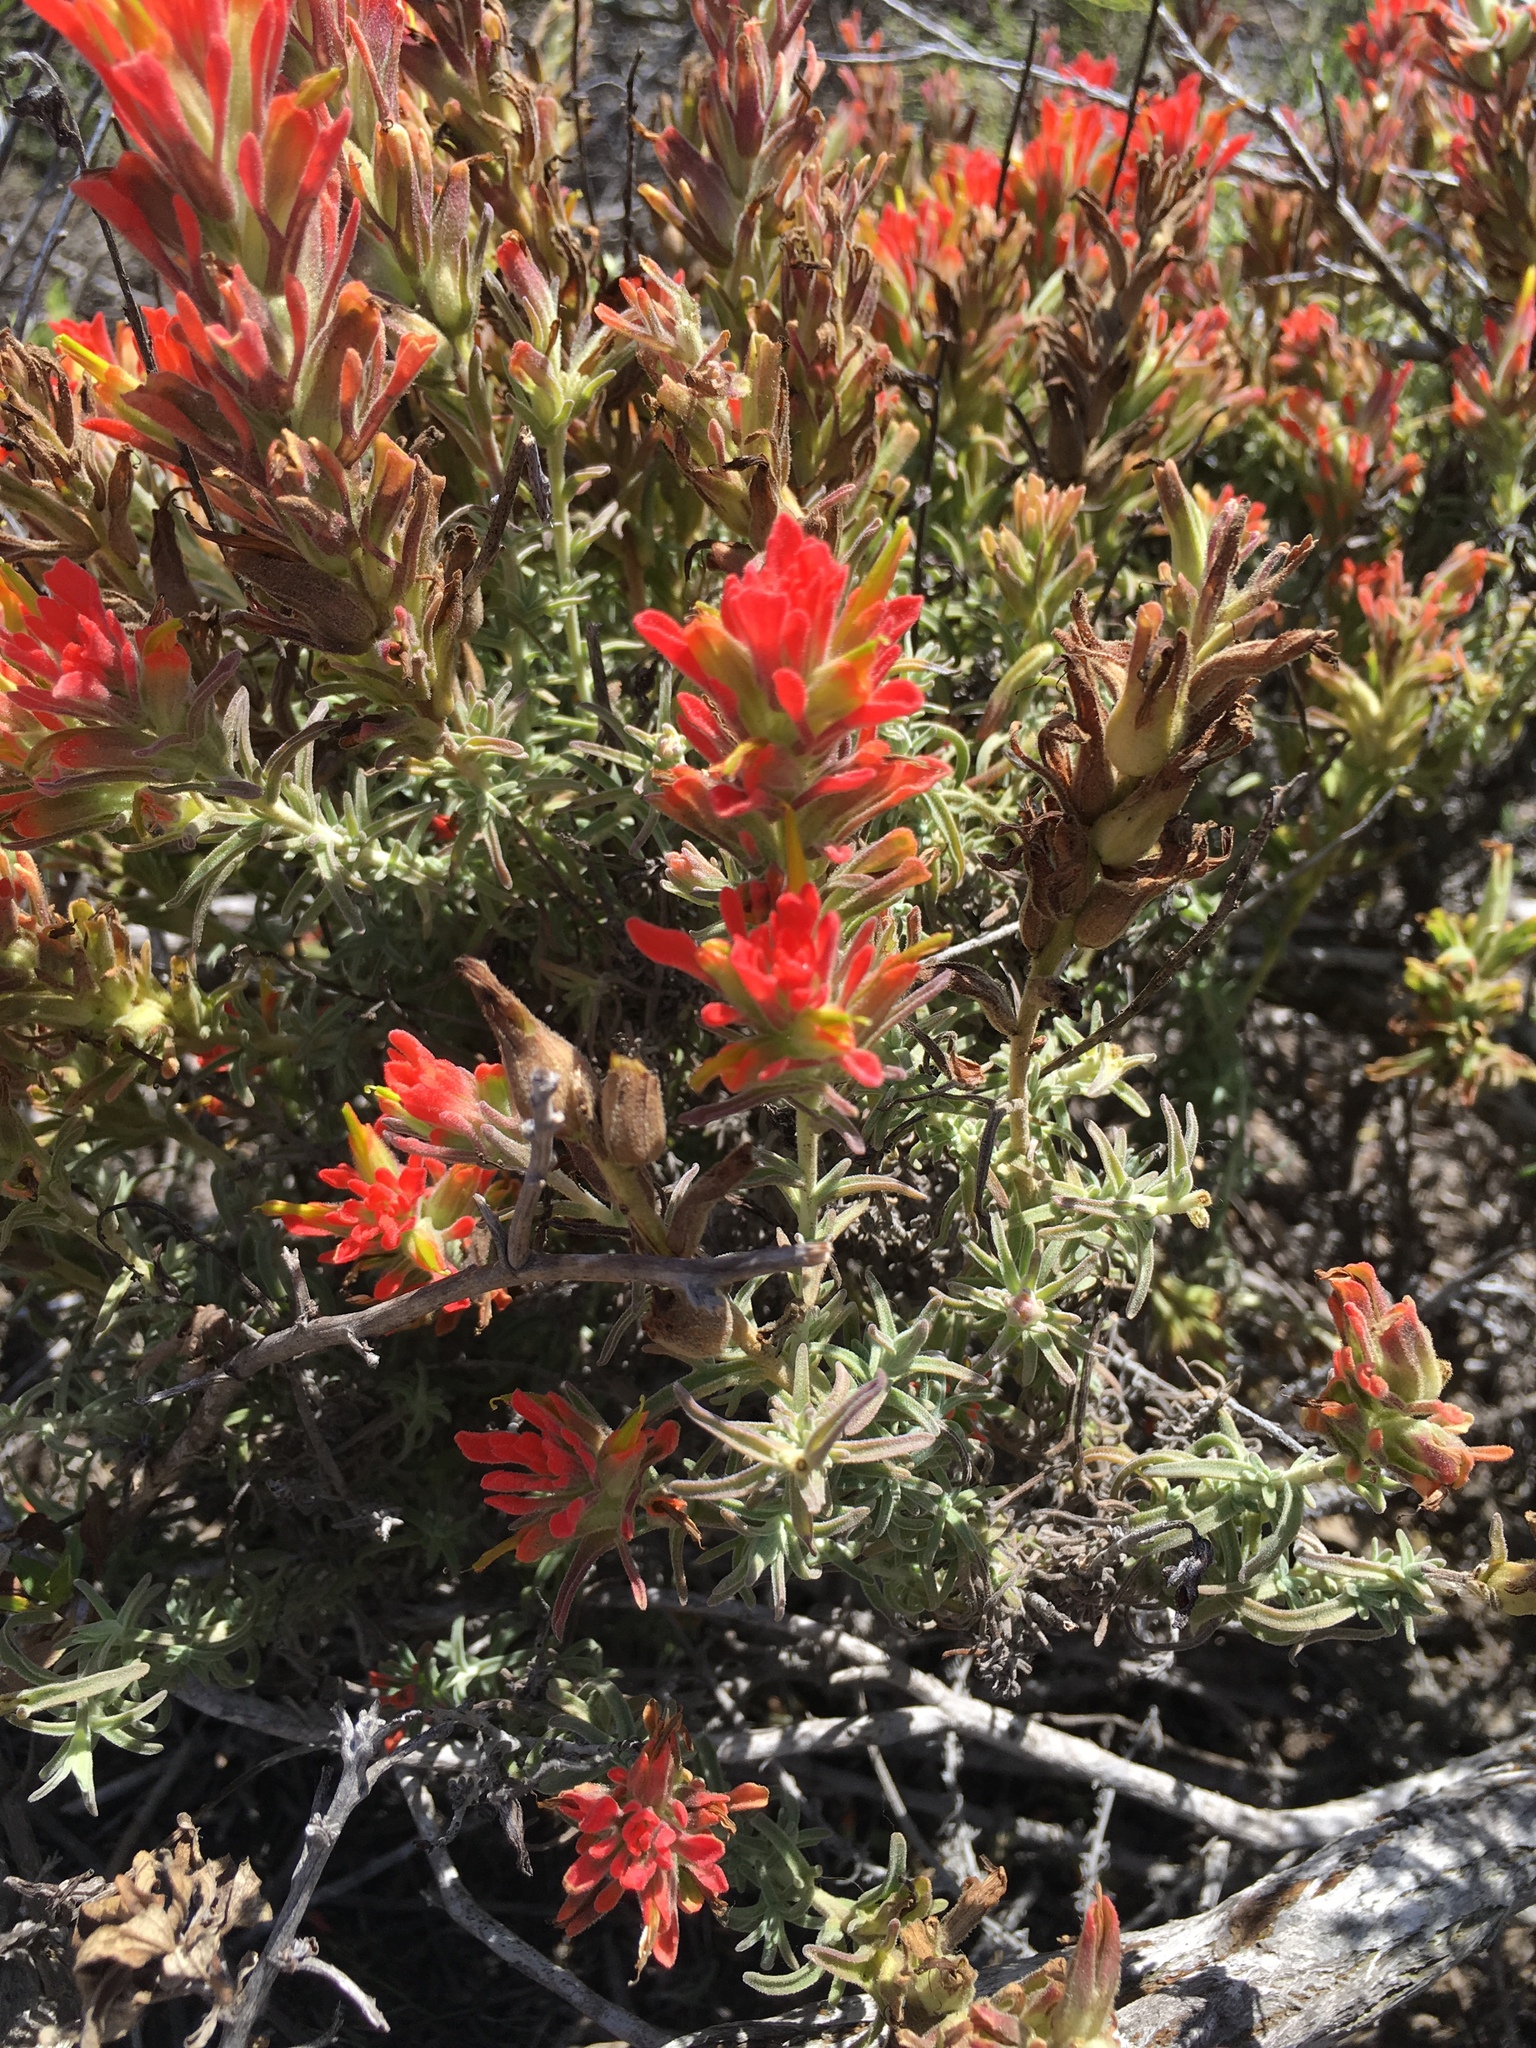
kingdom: Plantae
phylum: Tracheophyta
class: Magnoliopsida
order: Lamiales
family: Orobanchaceae
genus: Castilleja
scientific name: Castilleja foliolosa
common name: Woolly indian paintbrush
